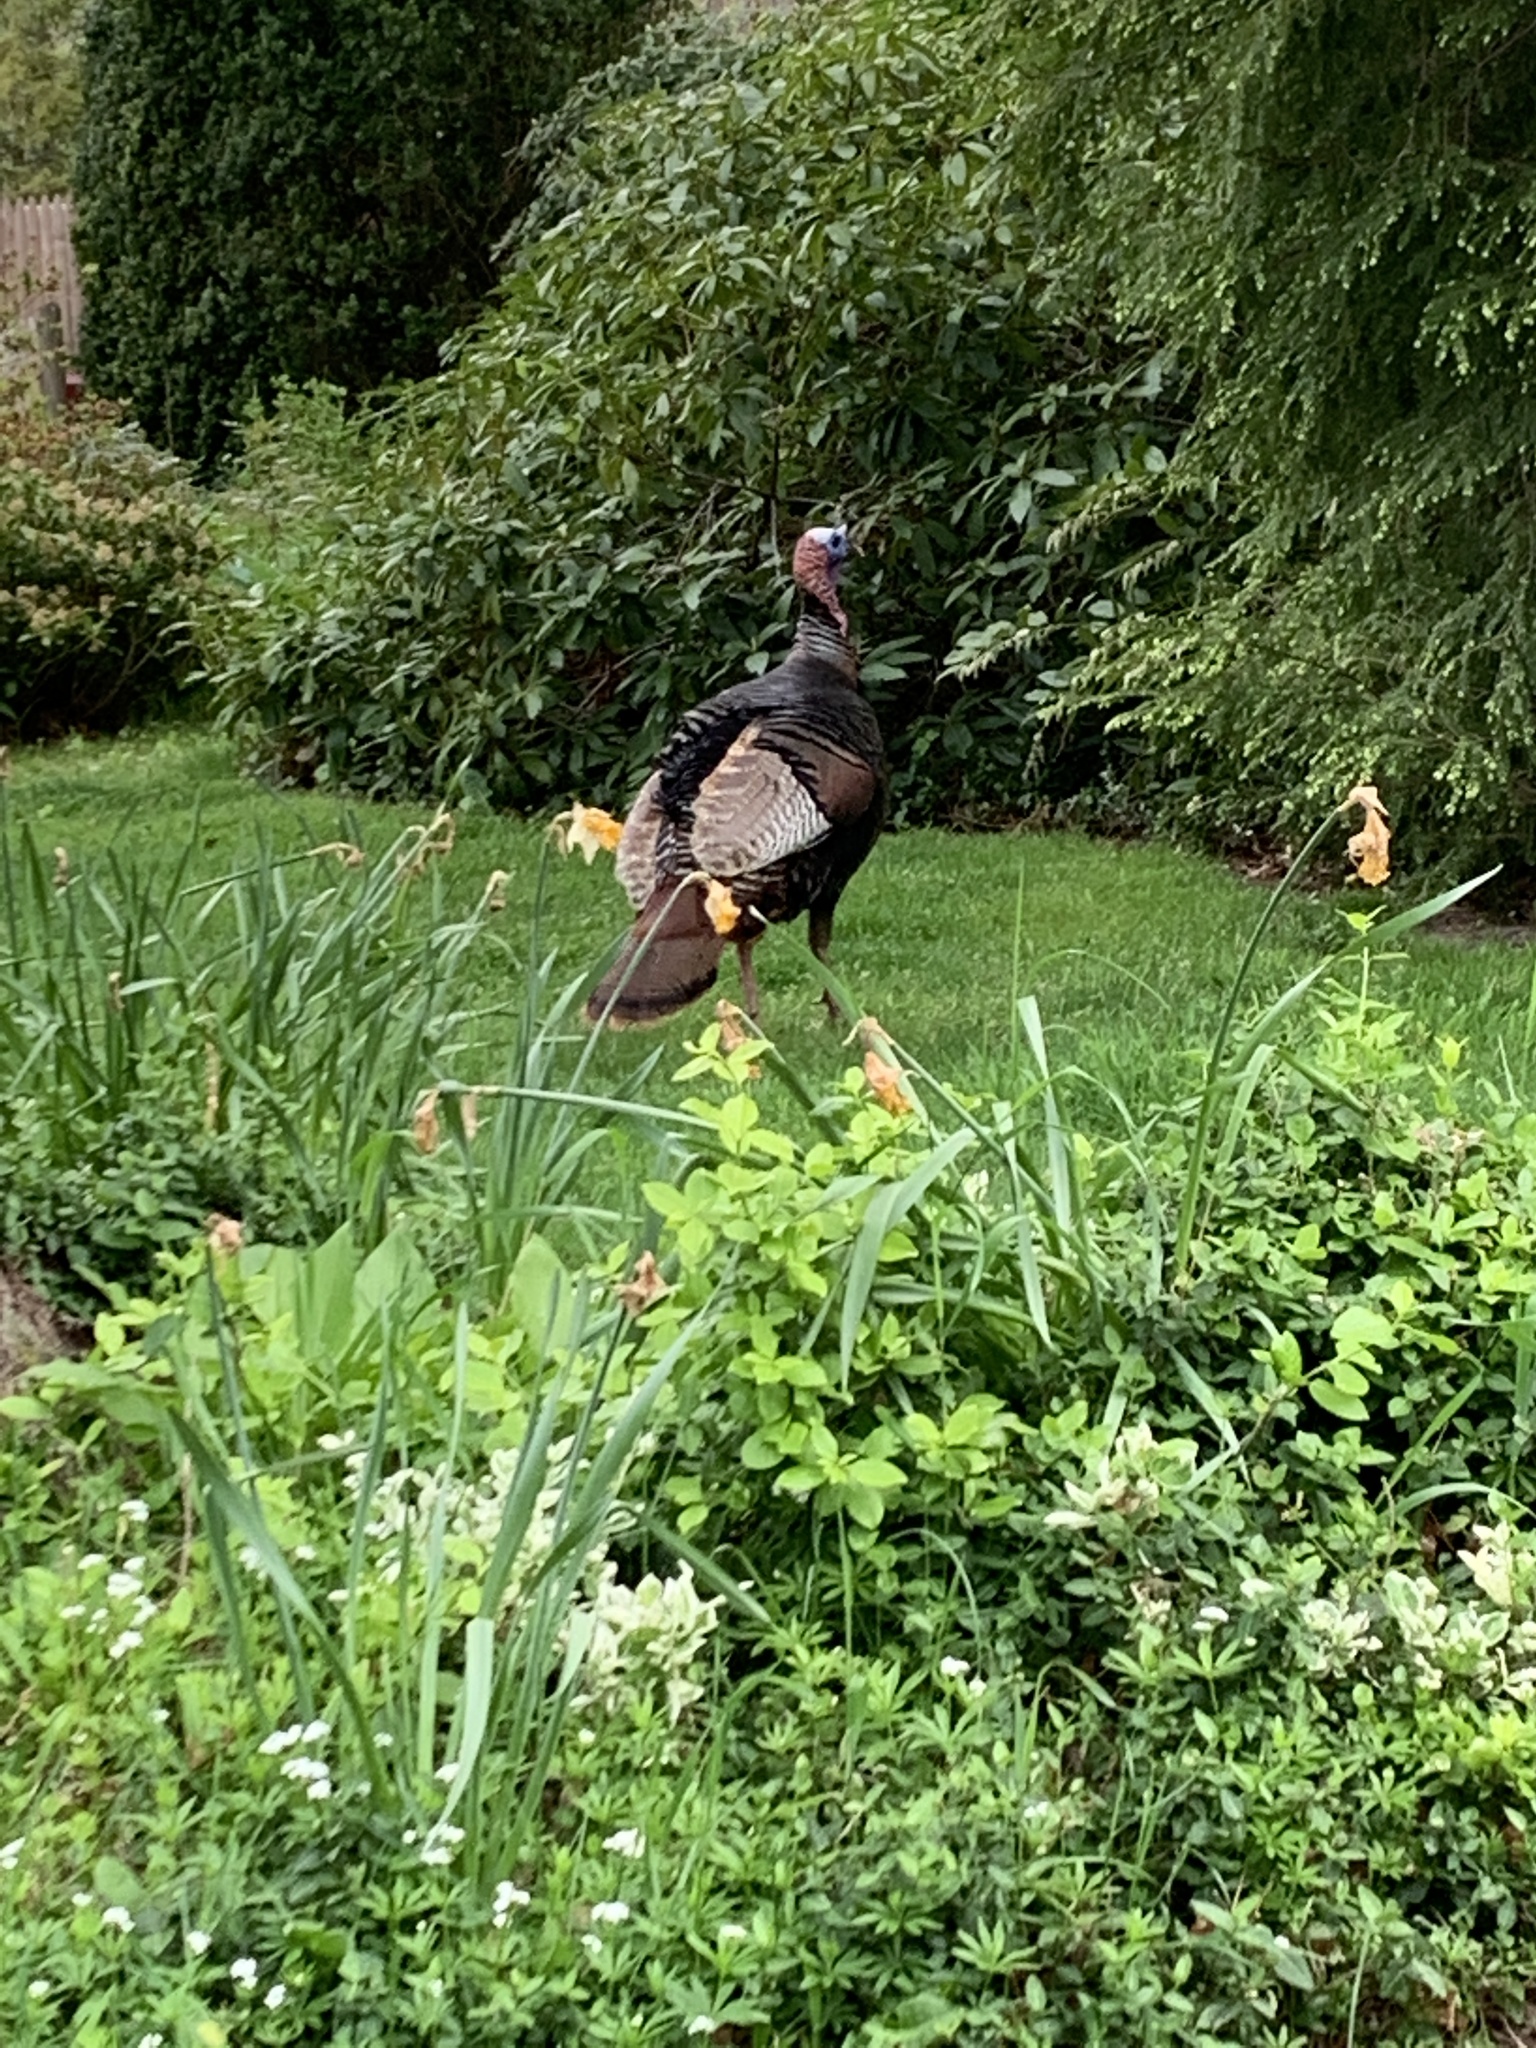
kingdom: Animalia
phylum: Chordata
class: Aves
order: Galliformes
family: Phasianidae
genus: Meleagris
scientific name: Meleagris gallopavo
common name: Wild turkey
